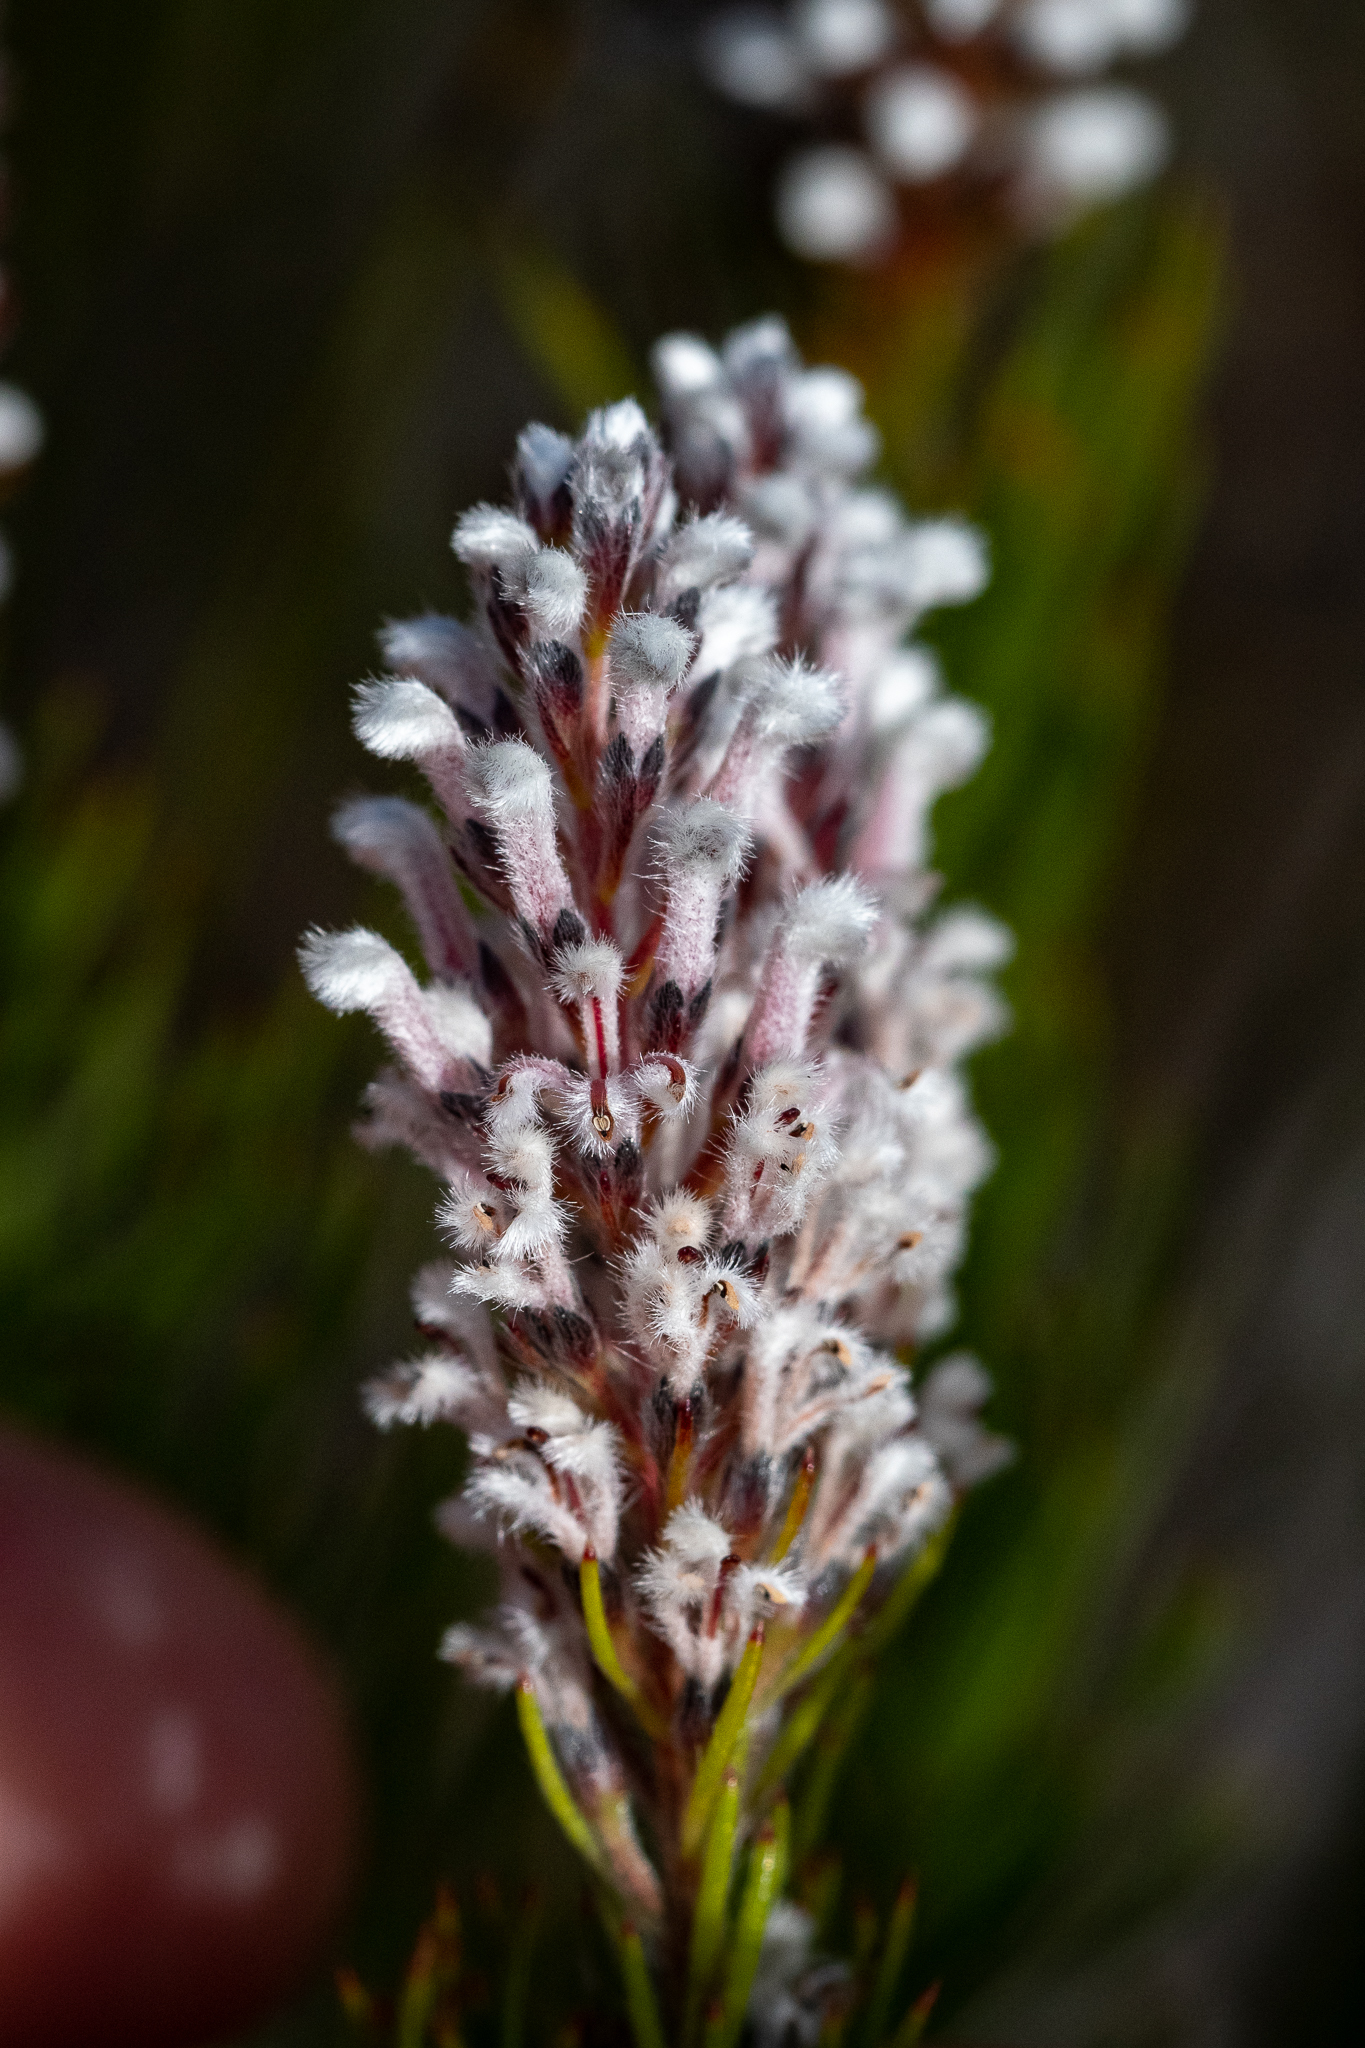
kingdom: Plantae
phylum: Tracheophyta
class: Magnoliopsida
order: Proteales
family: Proteaceae
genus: Spatalla
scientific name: Spatalla mollis
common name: Woolly spoon
